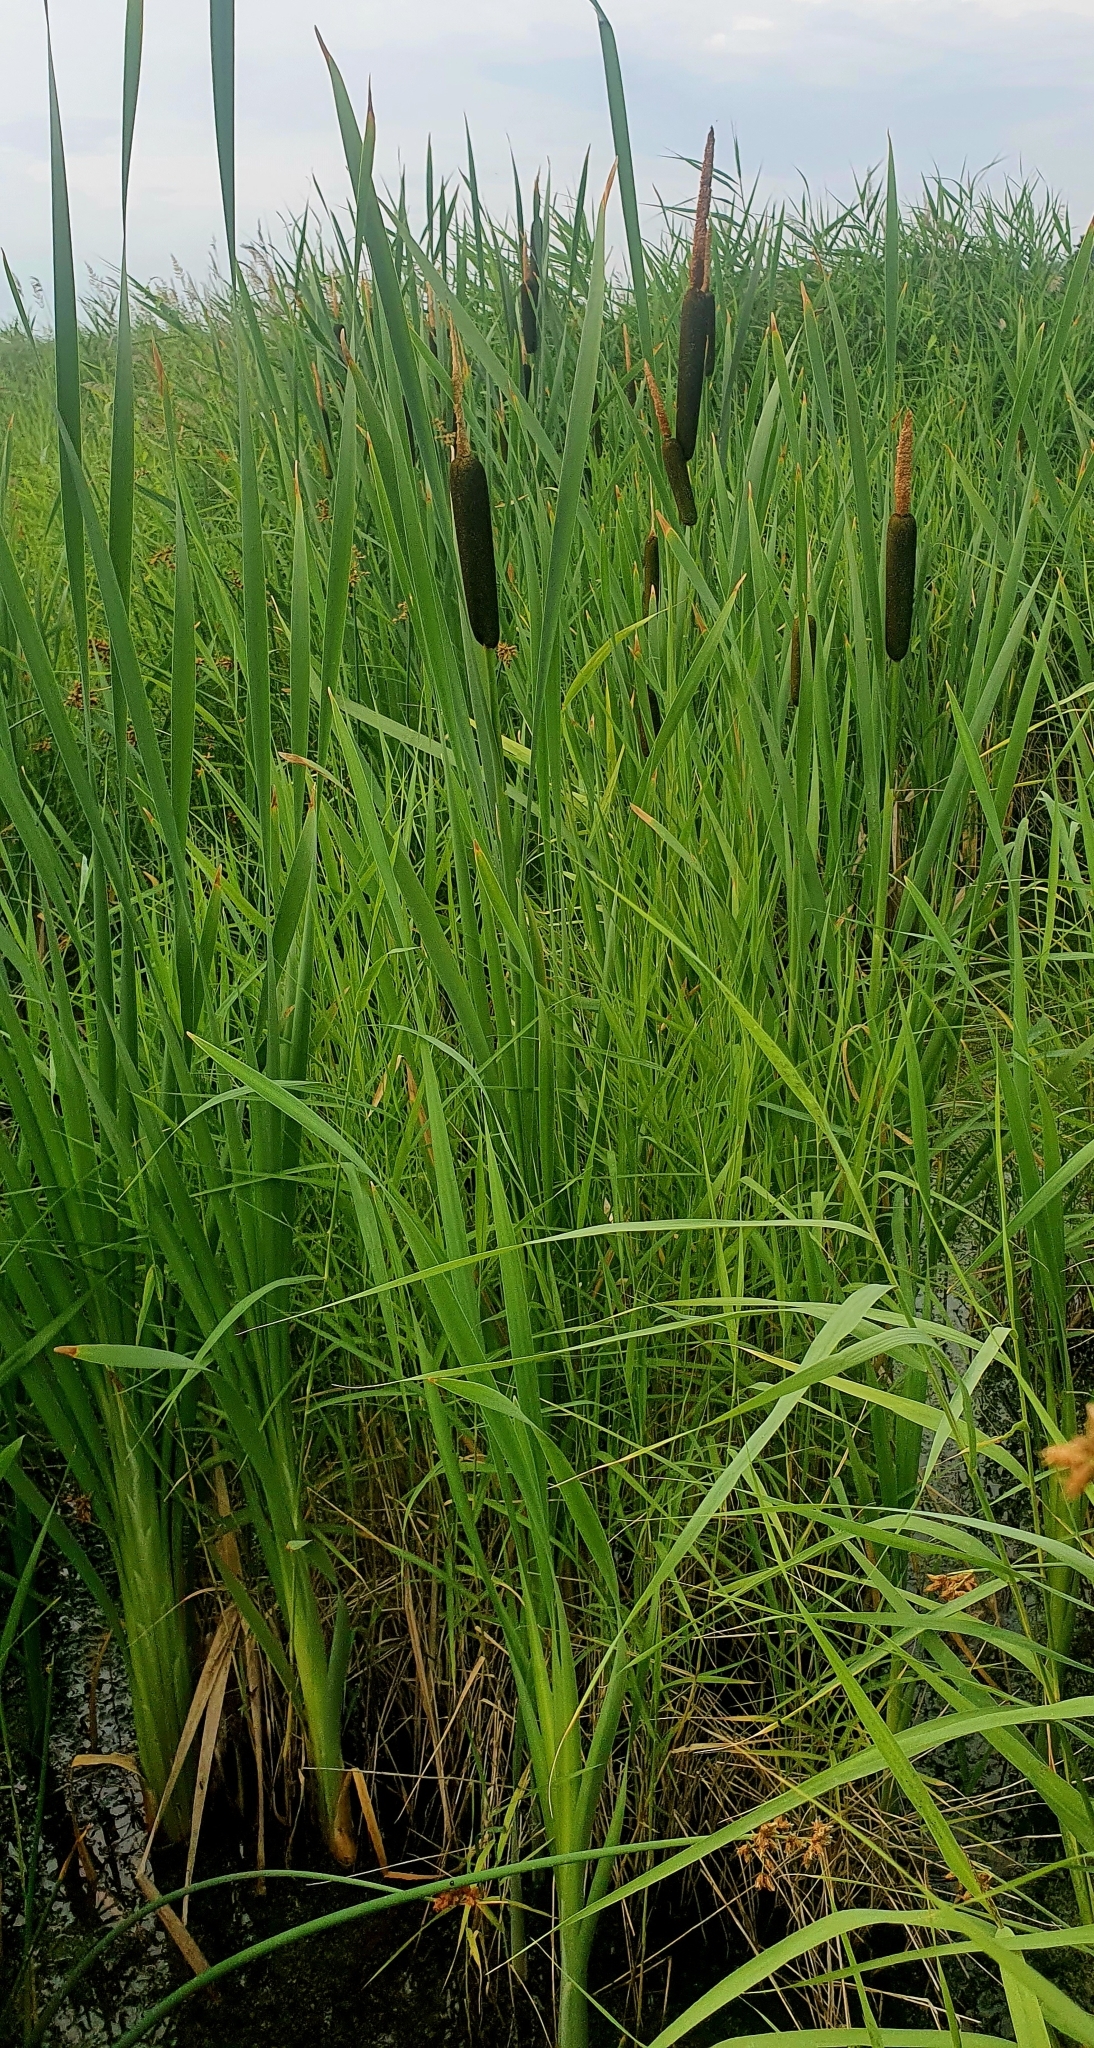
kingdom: Plantae
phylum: Tracheophyta
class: Liliopsida
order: Poales
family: Typhaceae
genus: Typha
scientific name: Typha latifolia
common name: Broadleaf cattail
